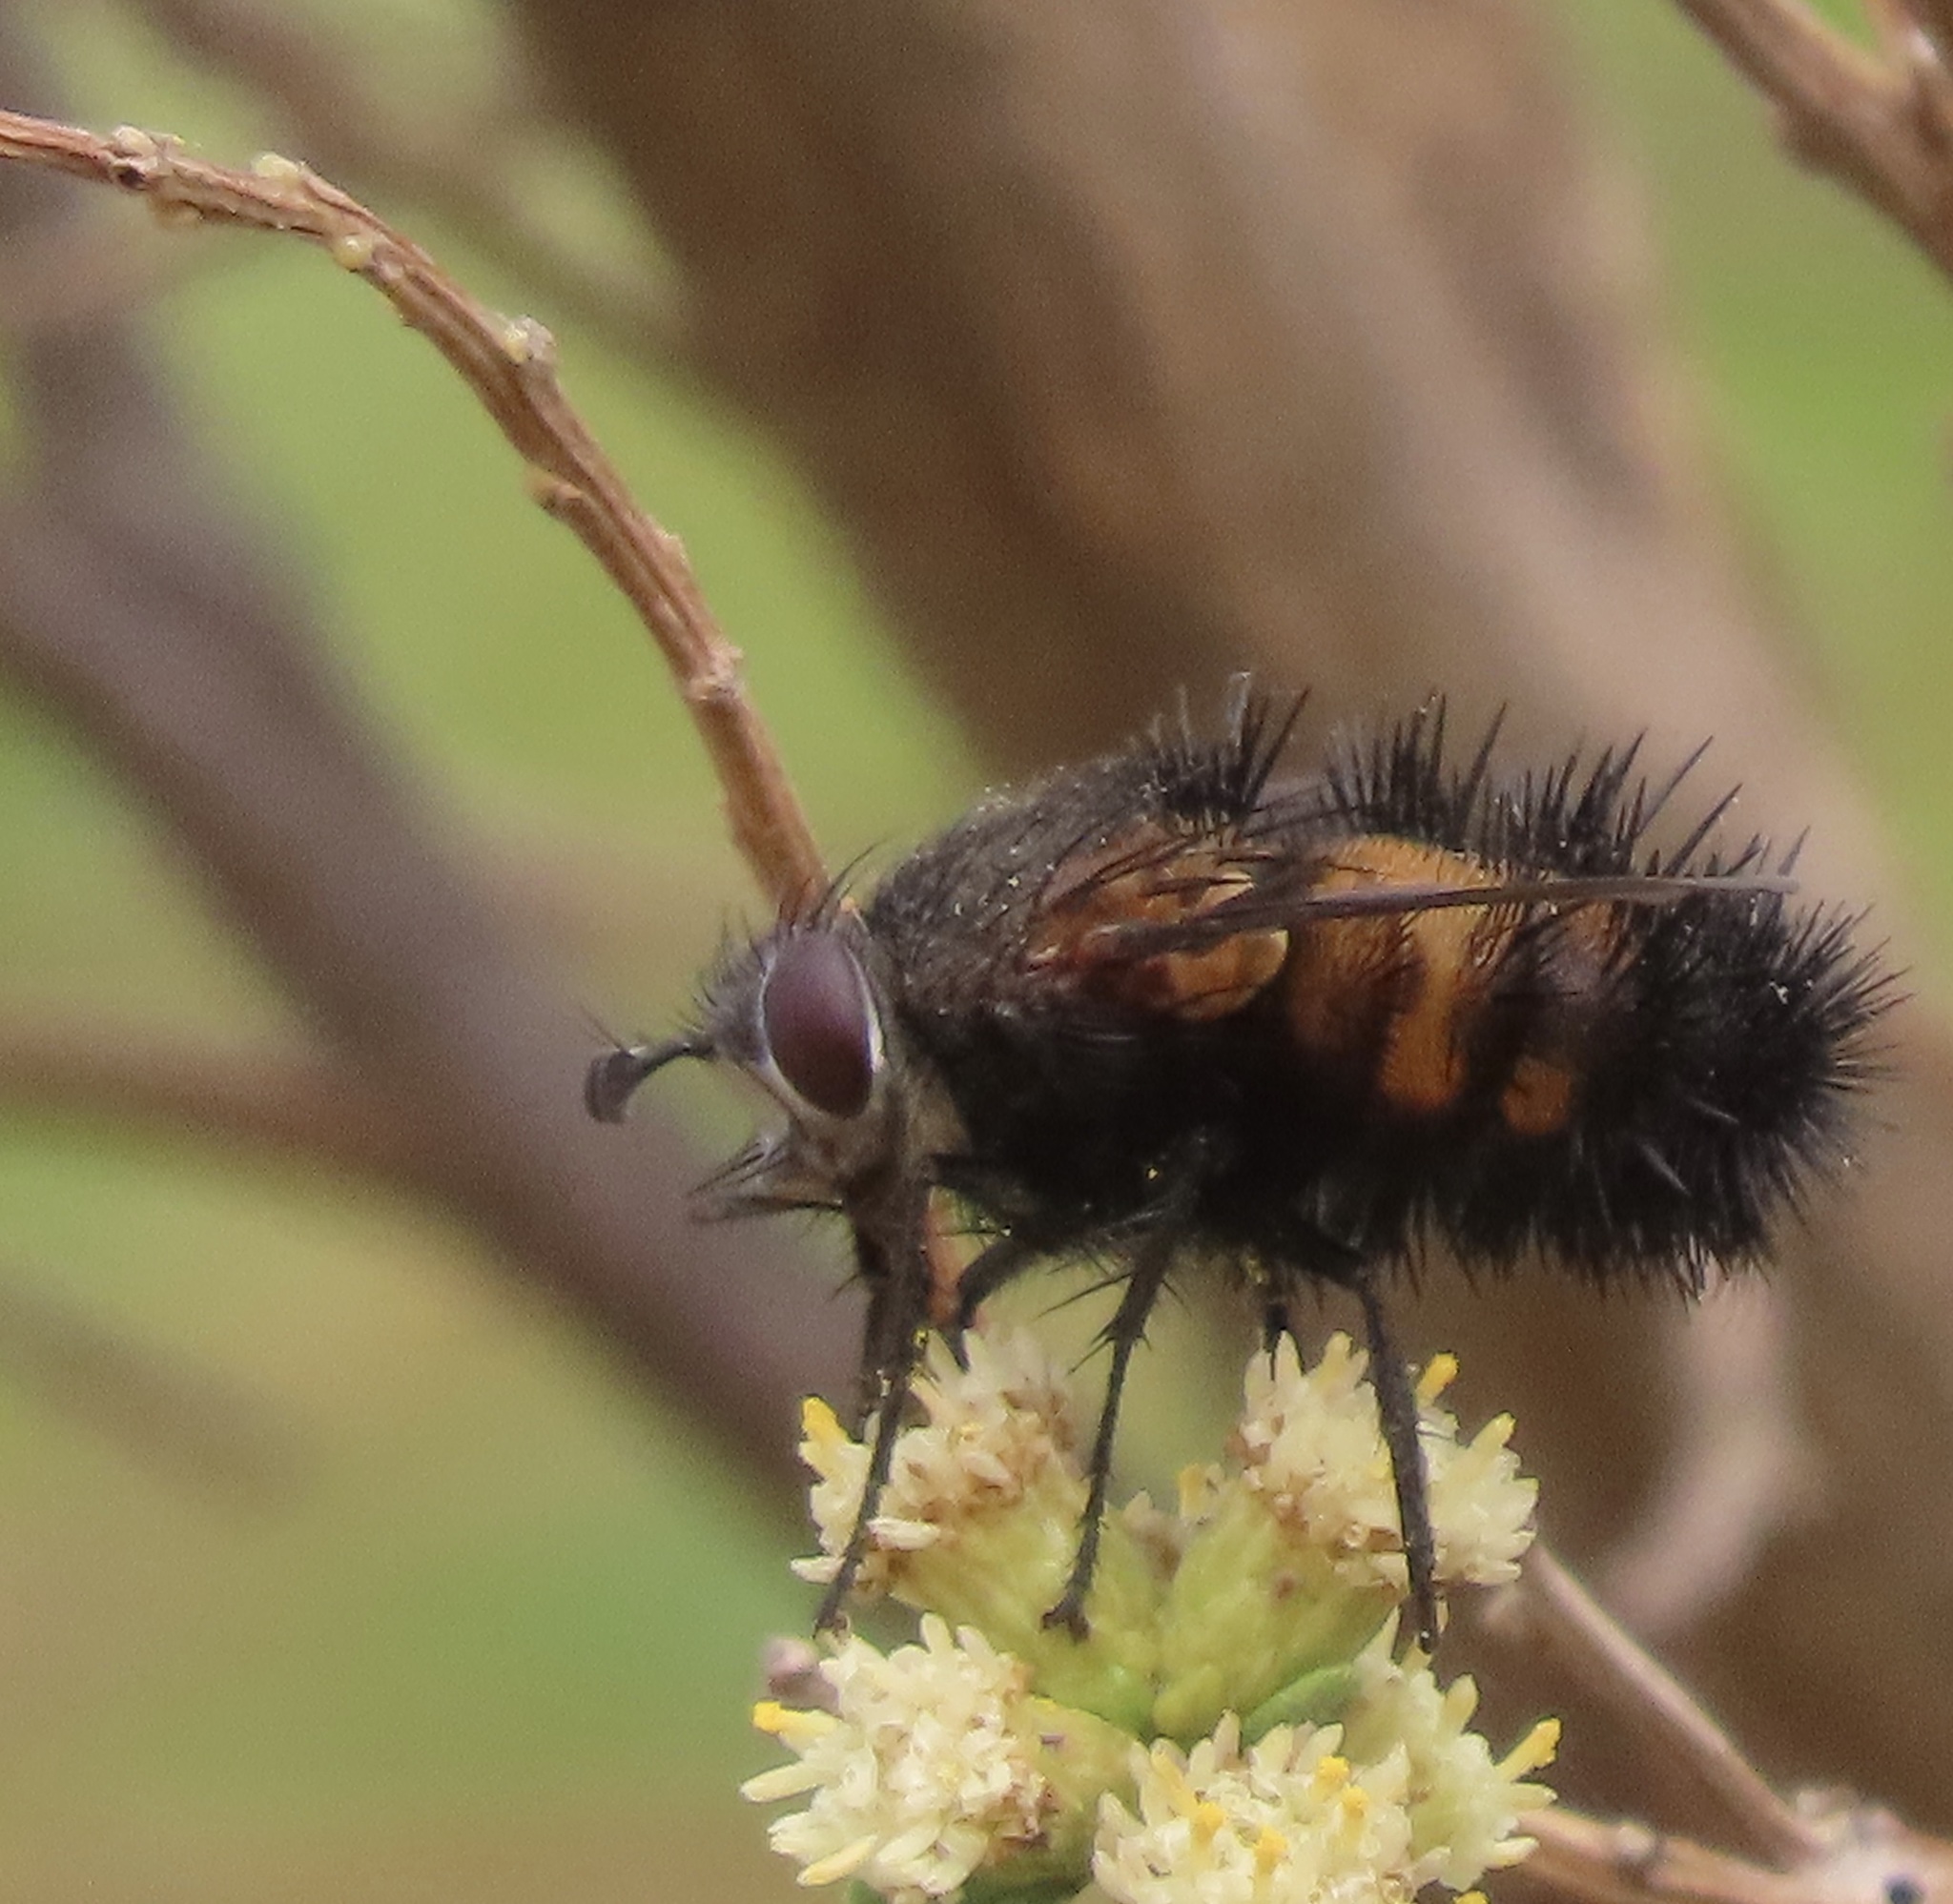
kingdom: Animalia
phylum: Arthropoda
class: Insecta
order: Diptera
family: Tachinidae
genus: Paradejeania
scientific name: Paradejeania rutilioides
